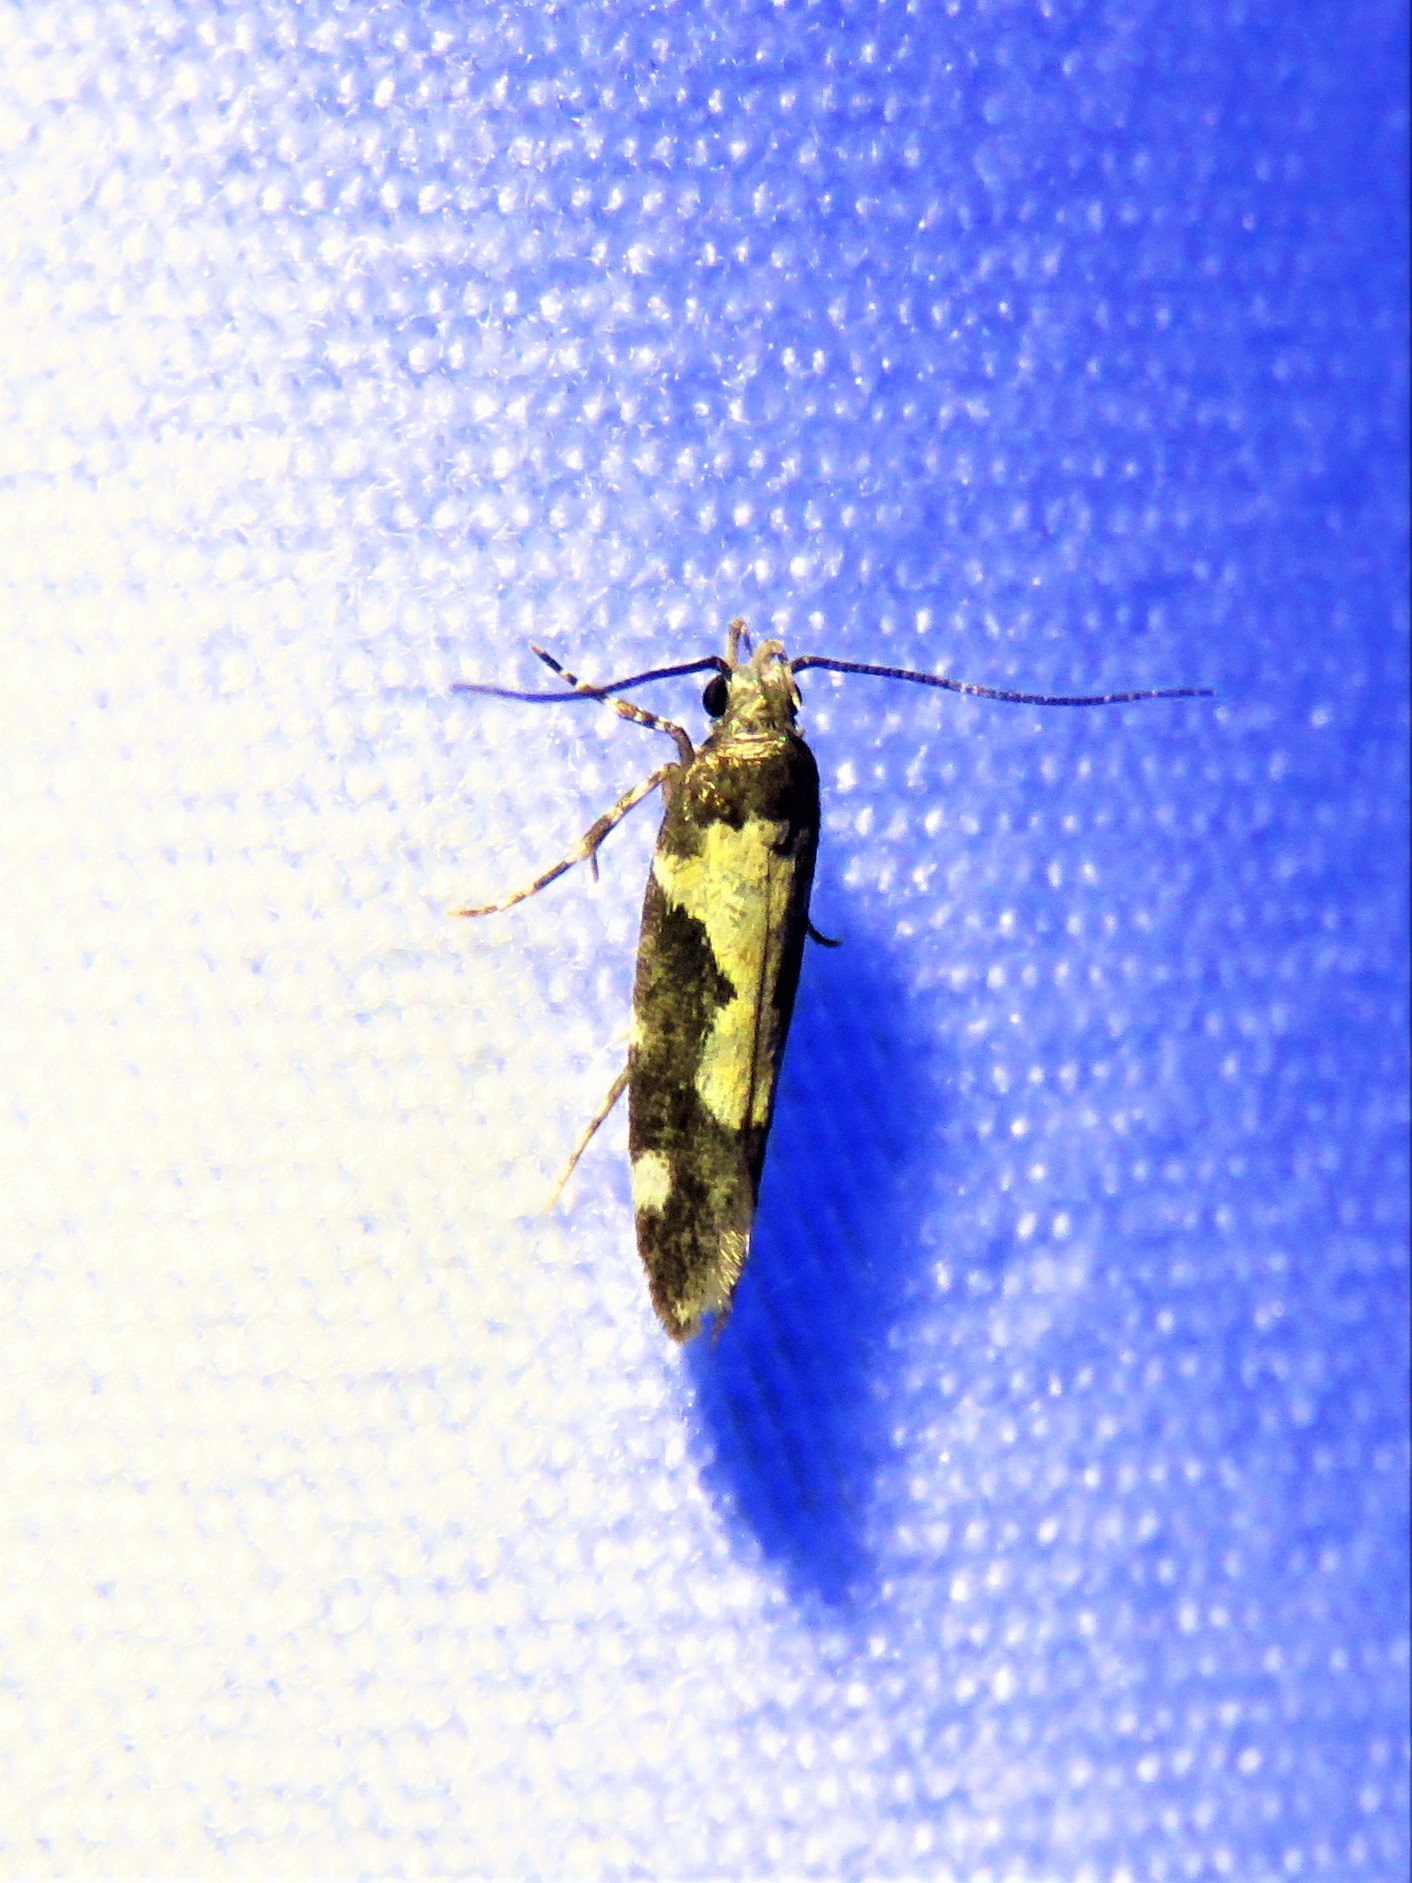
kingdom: Animalia
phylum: Arthropoda
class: Insecta
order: Lepidoptera
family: Gelechiidae
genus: Stegasta
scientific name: Stegasta bosqueella
